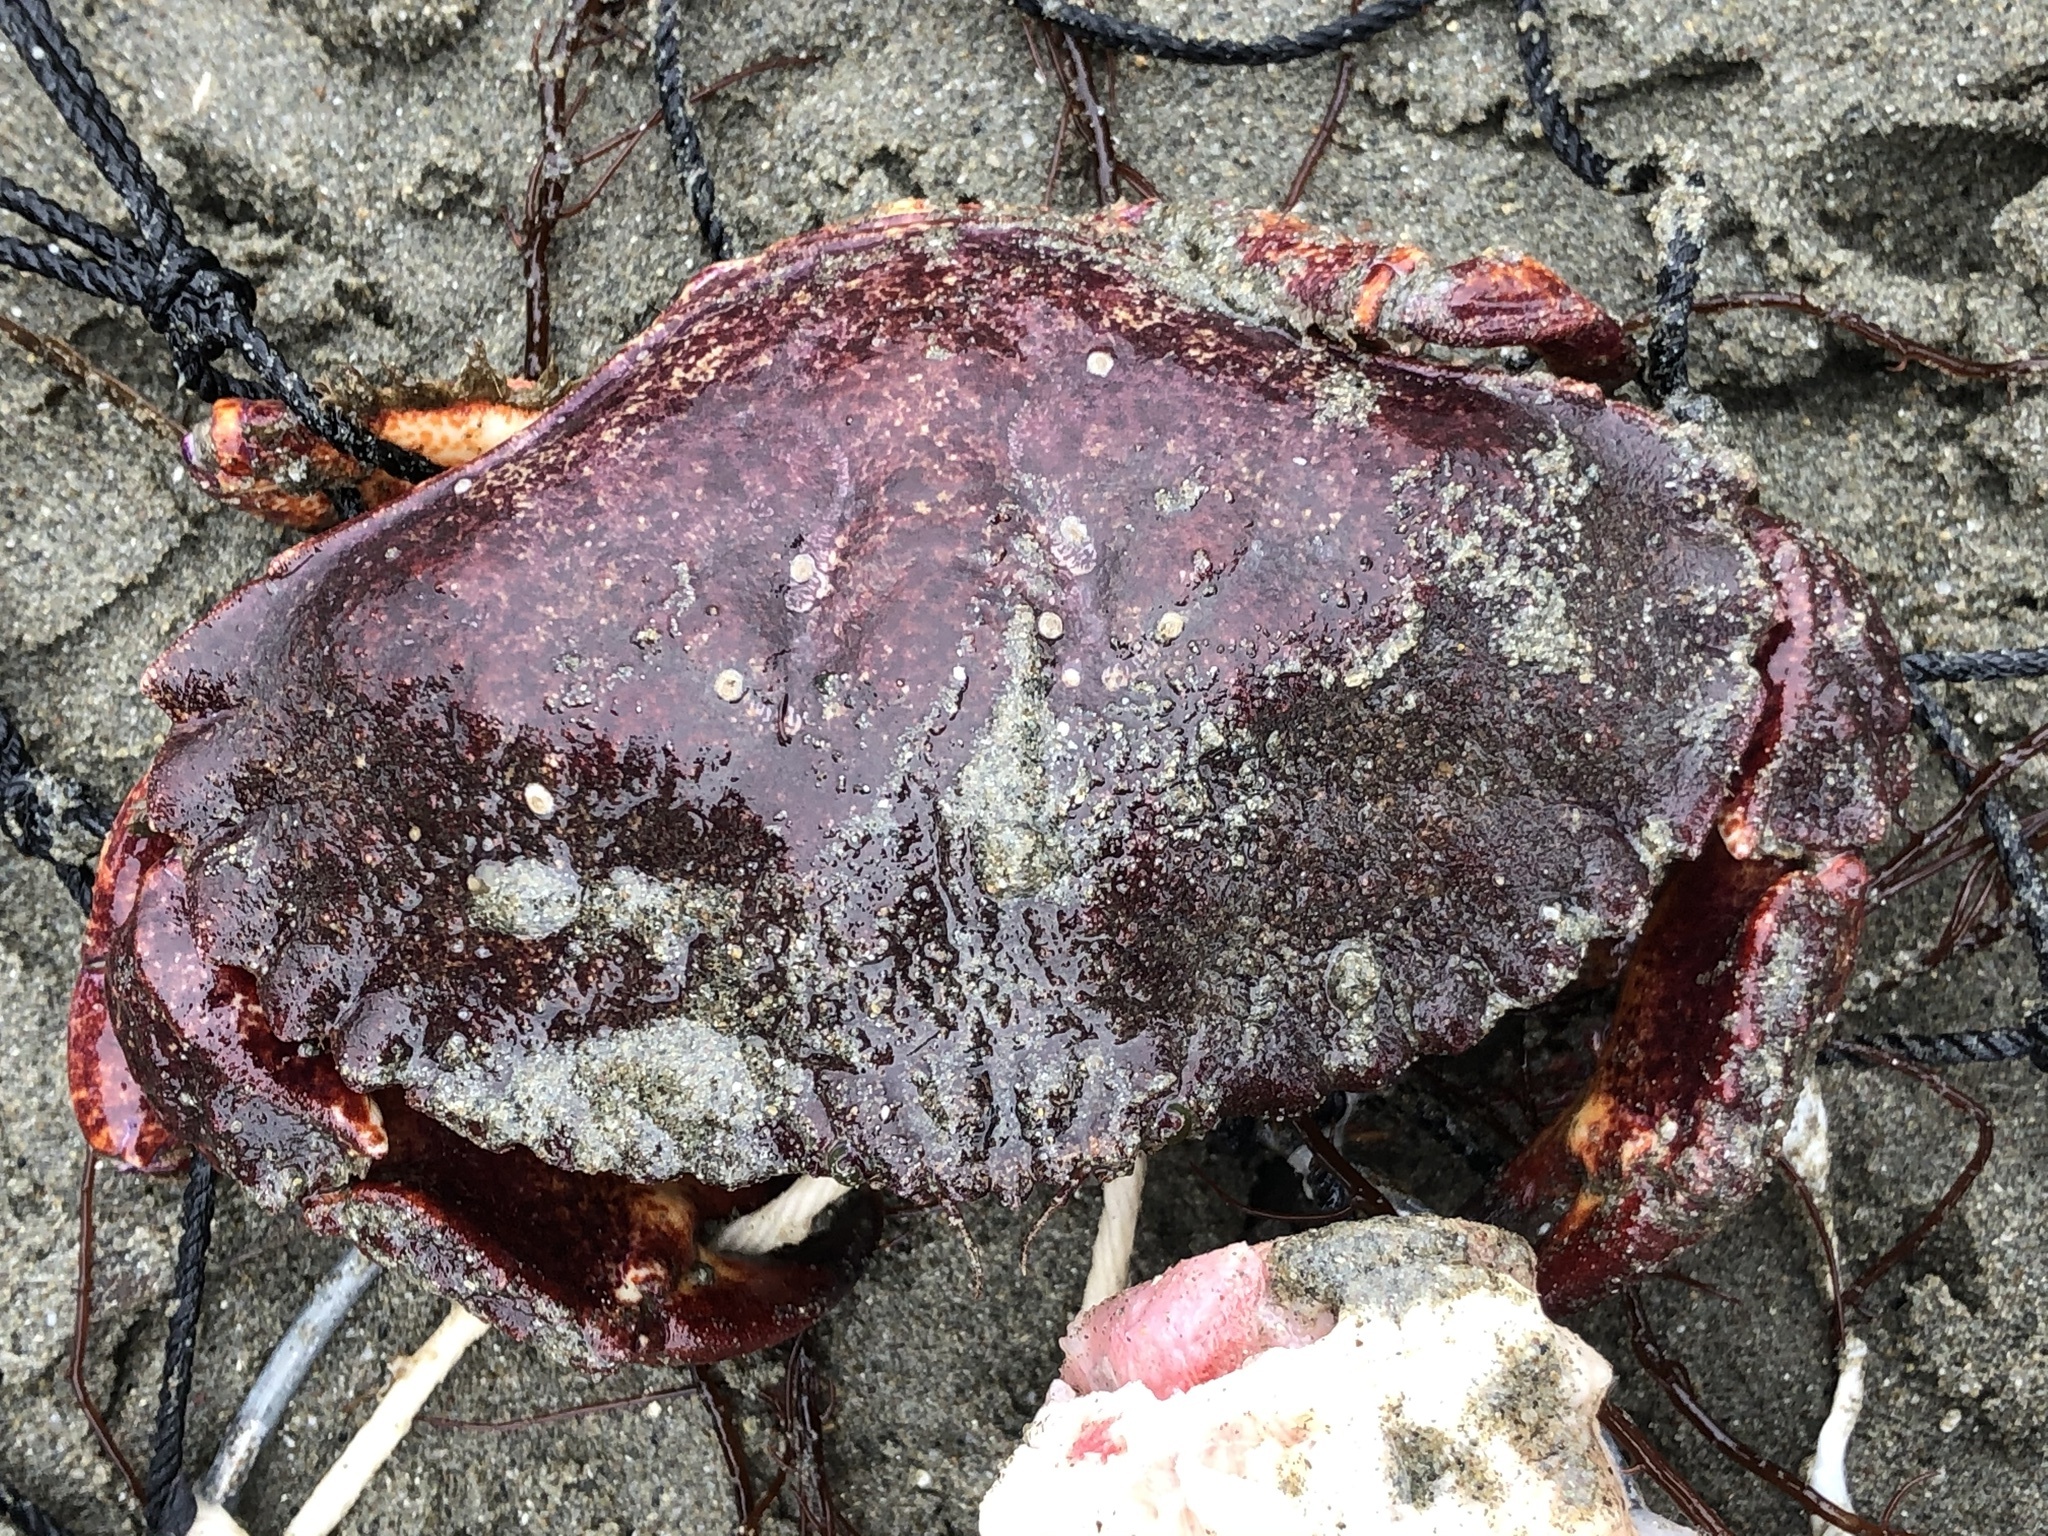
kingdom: Animalia
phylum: Arthropoda
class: Malacostraca
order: Decapoda
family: Cancridae
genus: Cancer
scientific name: Cancer productus
